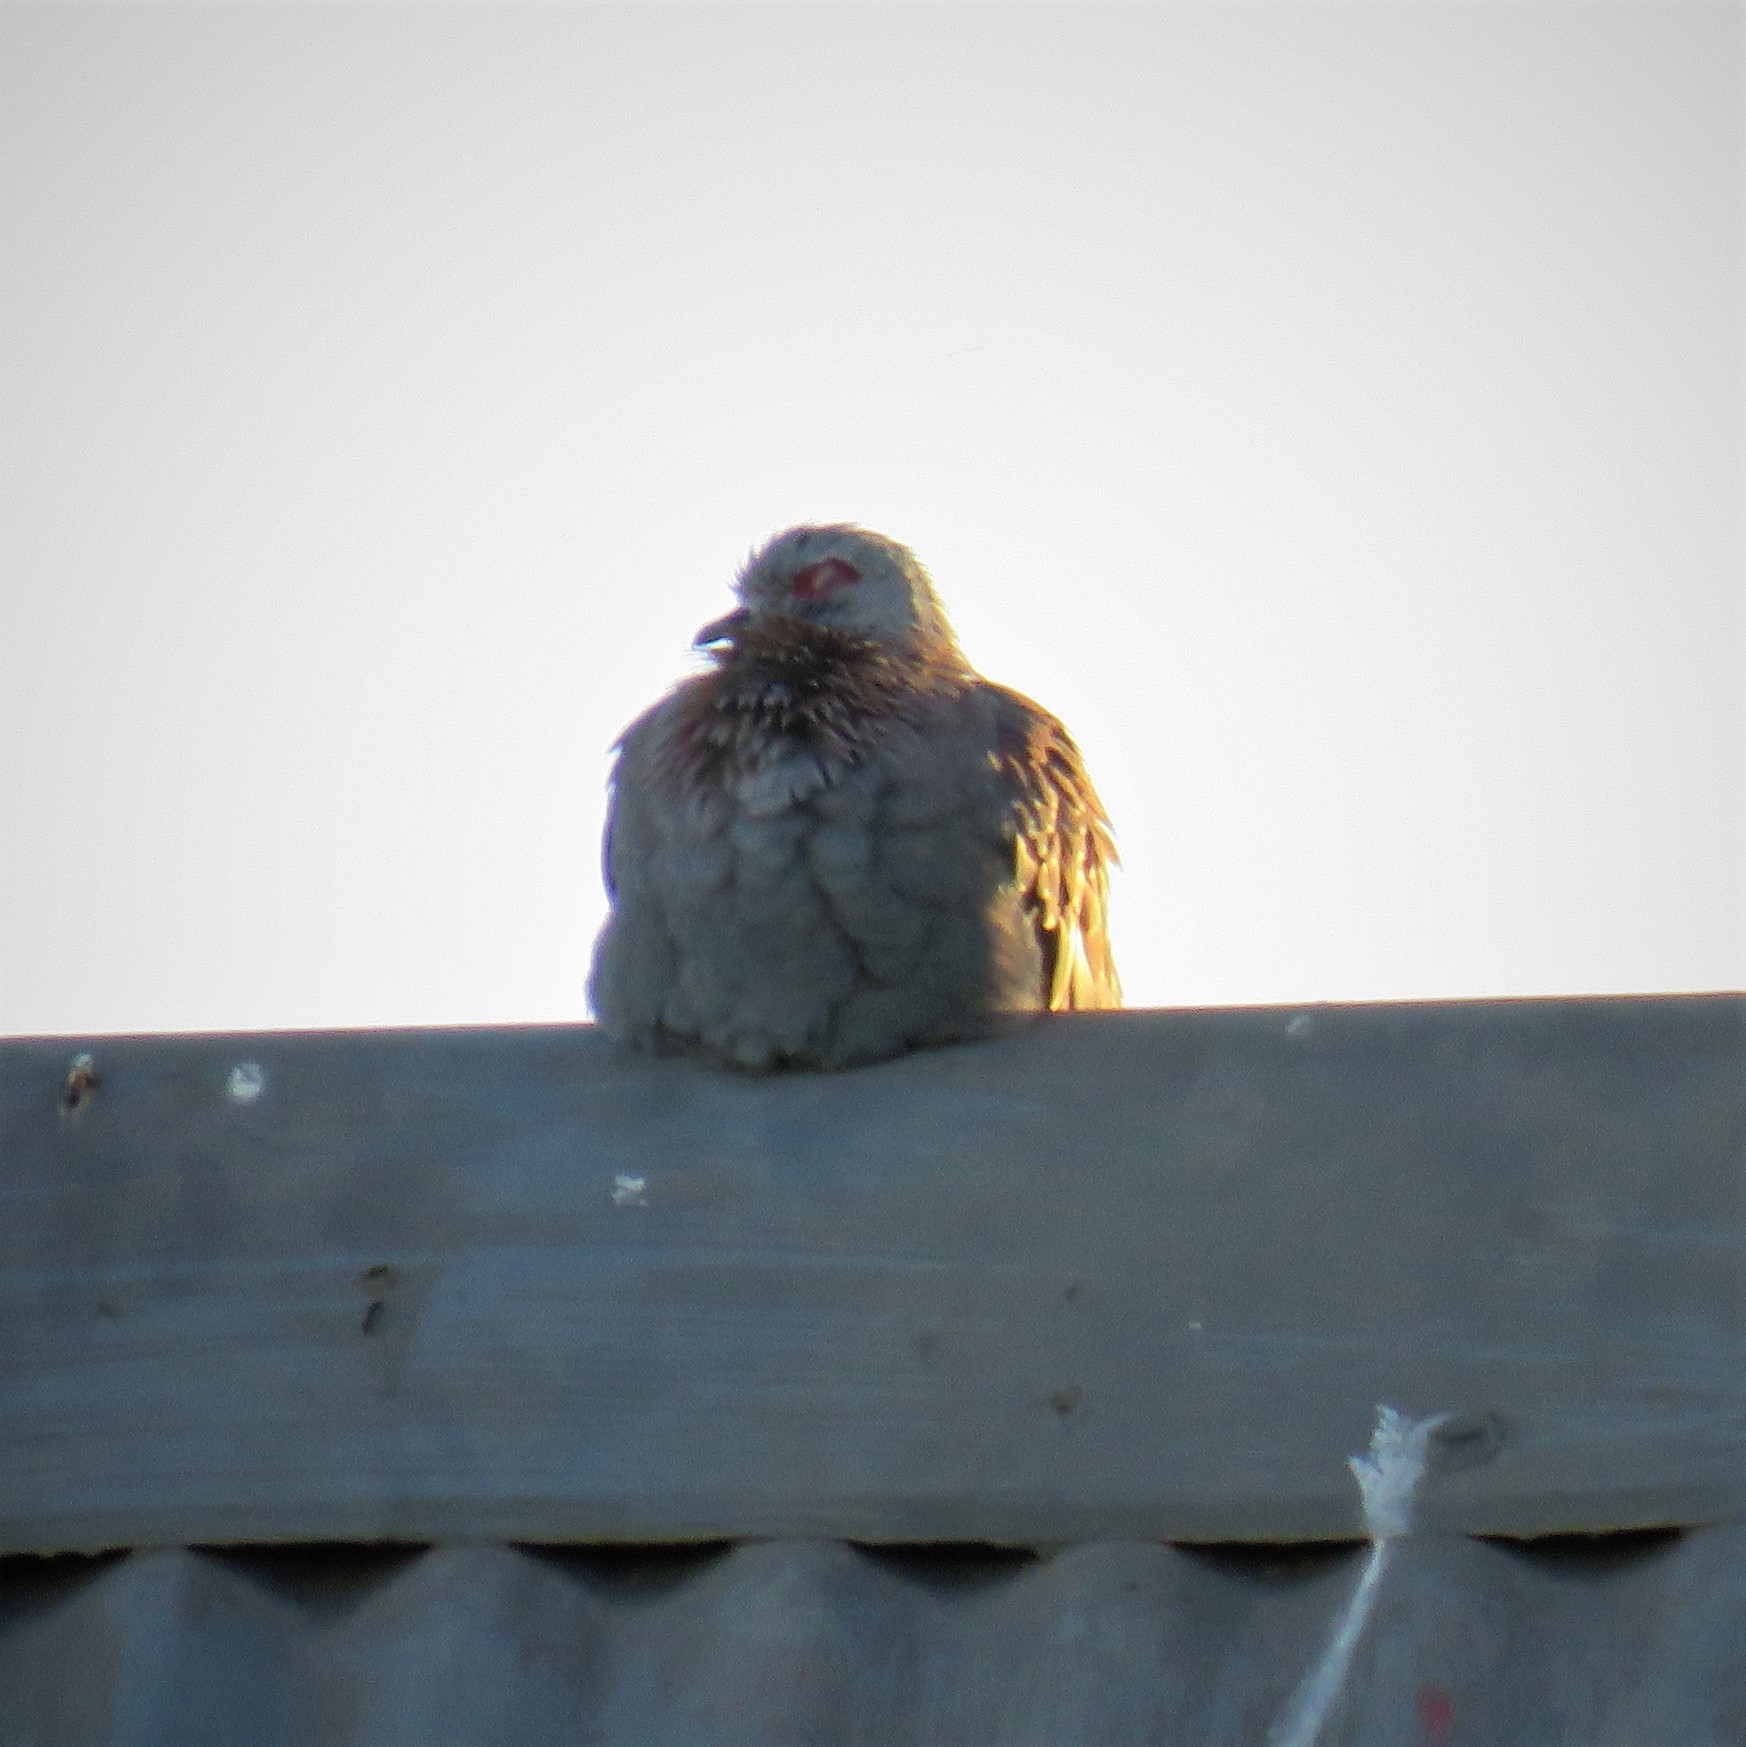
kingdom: Animalia
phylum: Chordata
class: Aves
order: Columbiformes
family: Columbidae
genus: Columba
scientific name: Columba guinea
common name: Speckled pigeon
